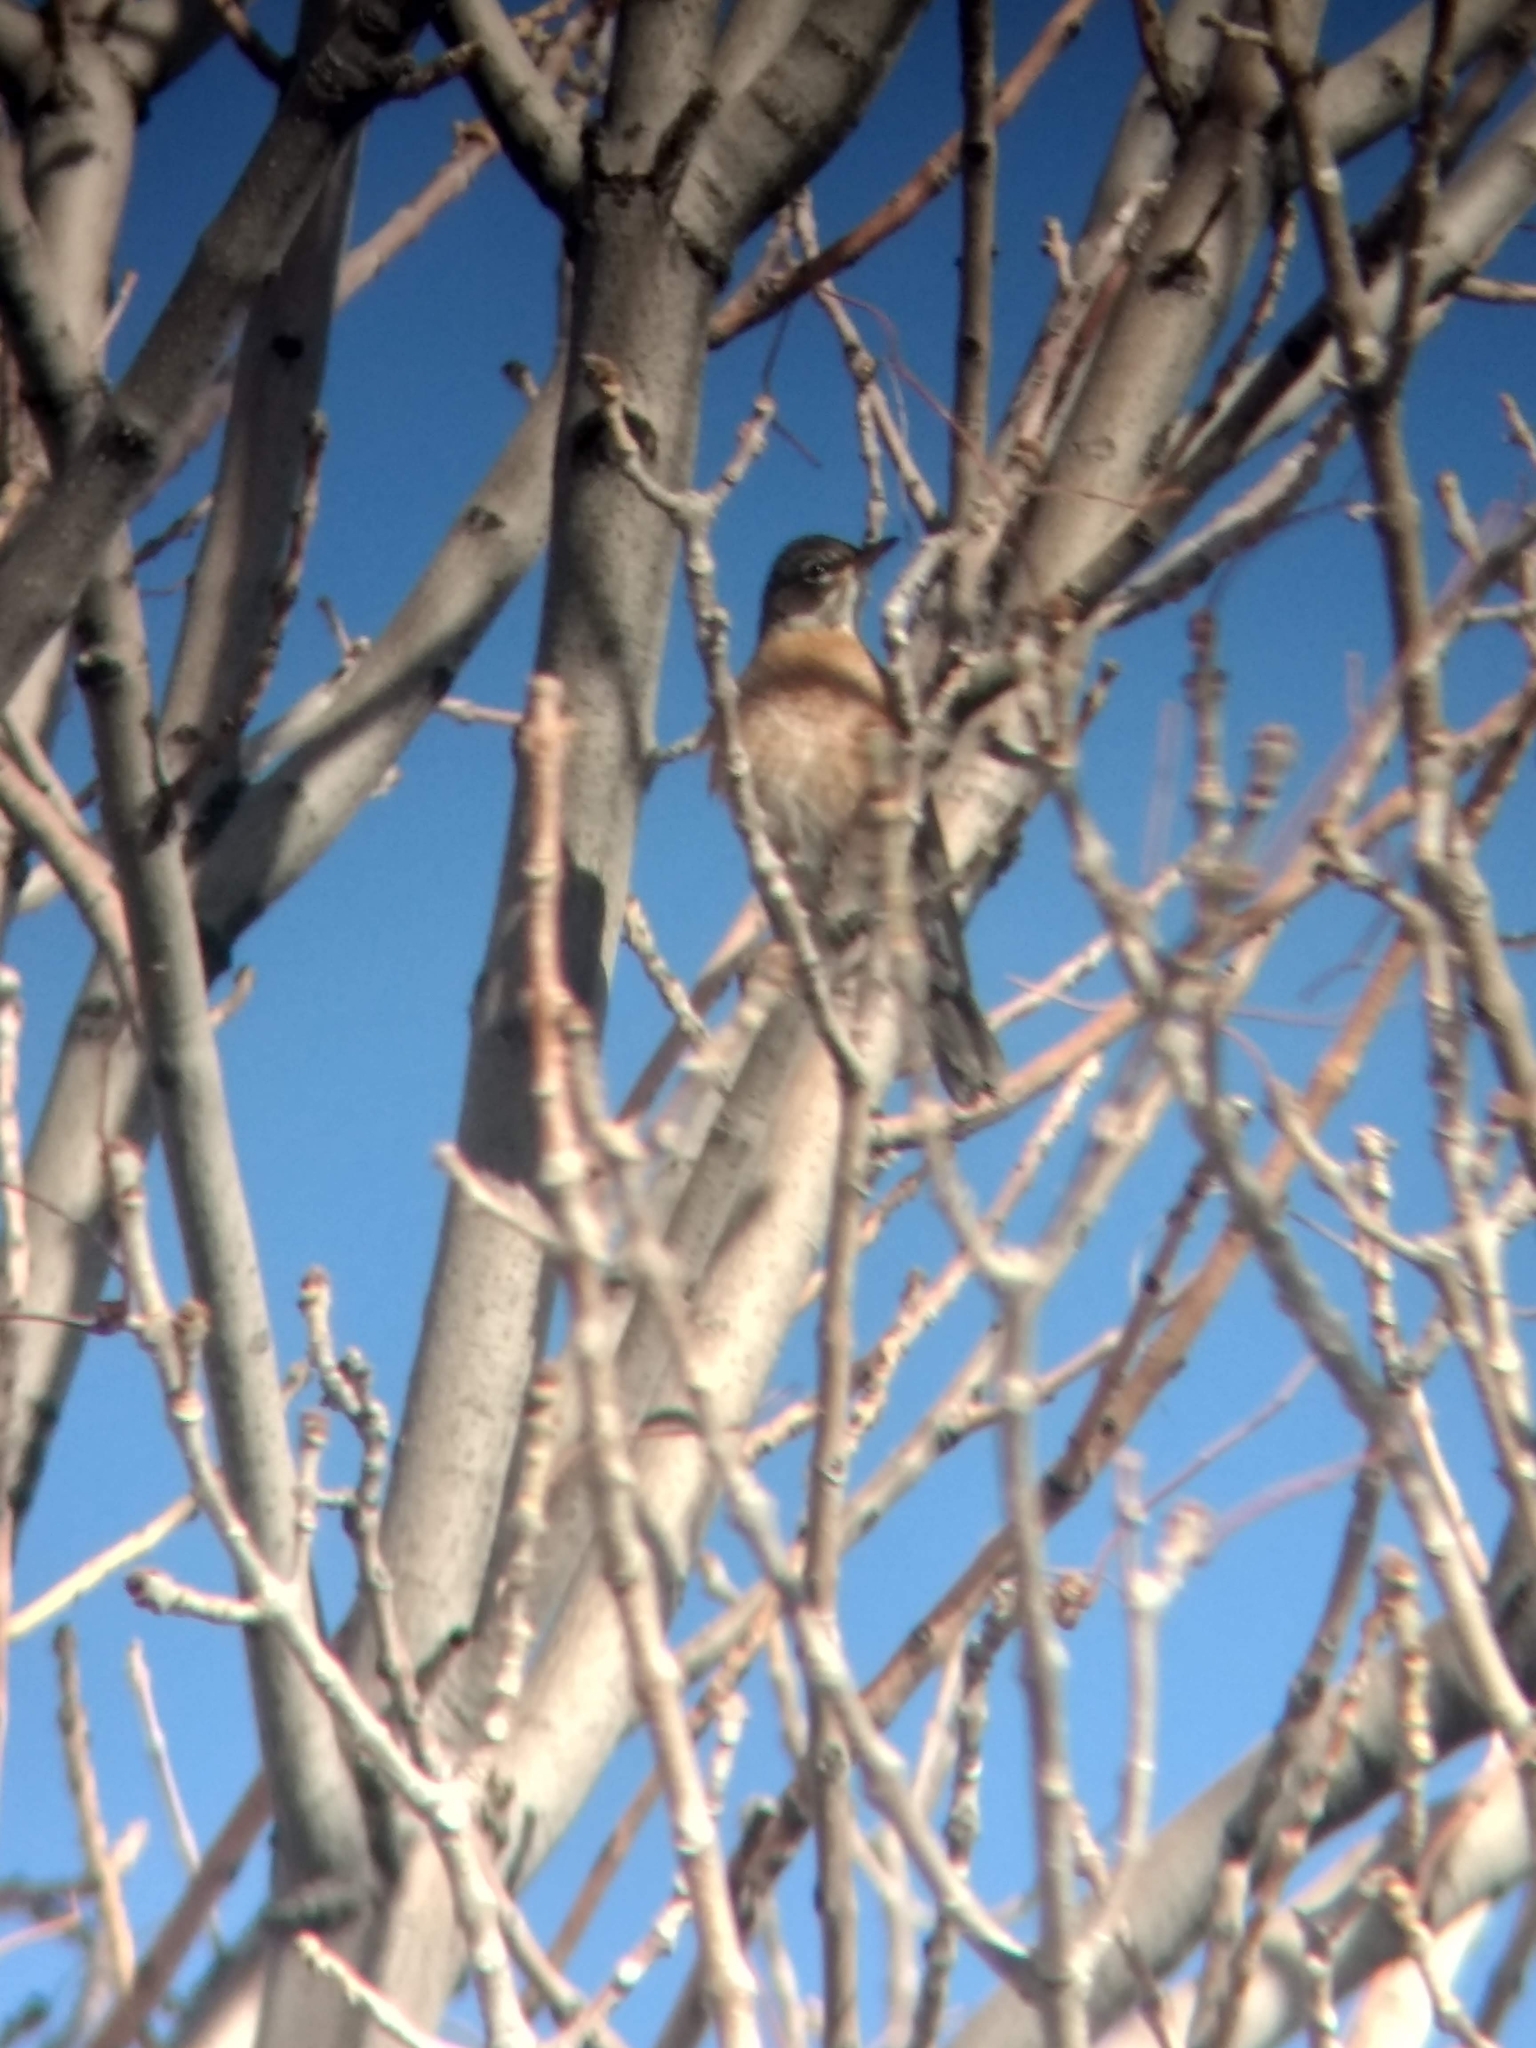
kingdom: Animalia
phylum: Chordata
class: Aves
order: Passeriformes
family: Turdidae
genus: Turdus
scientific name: Turdus migratorius
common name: American robin
